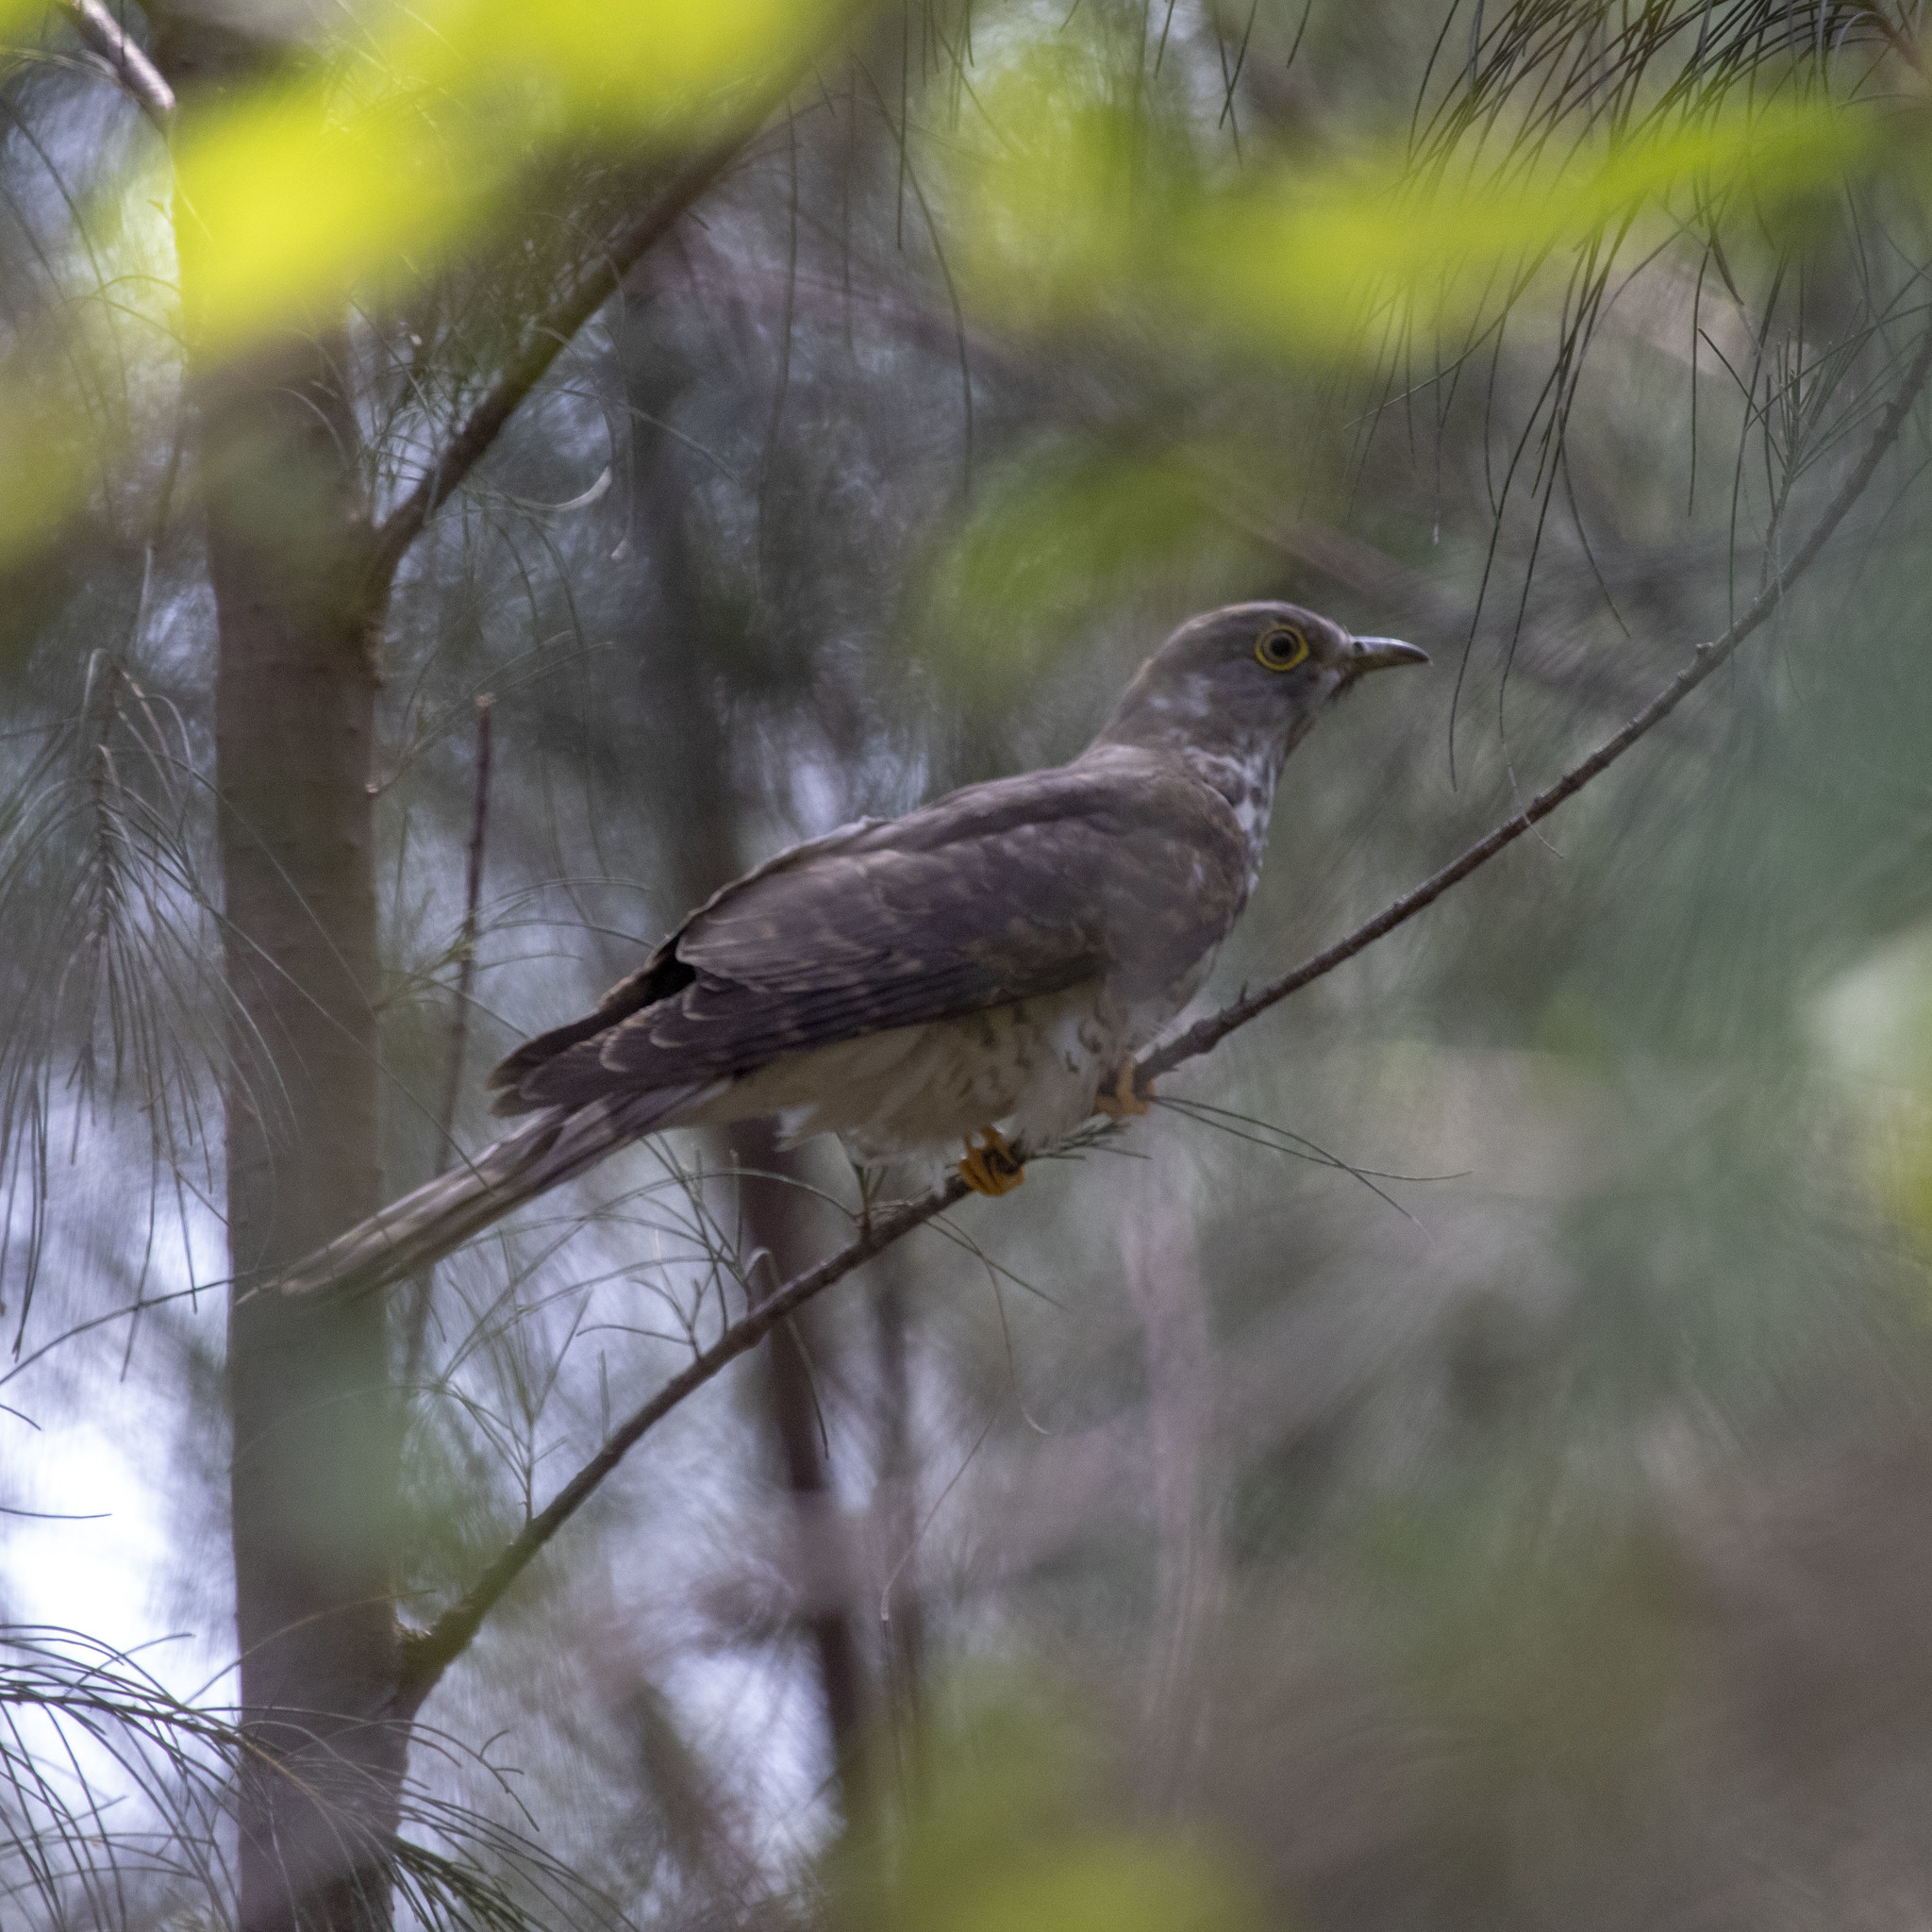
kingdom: Animalia
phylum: Chordata
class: Aves
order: Cuculiformes
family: Cuculidae
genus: Cuculus
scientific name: Cuculus varius
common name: Common hawk cuckoo
